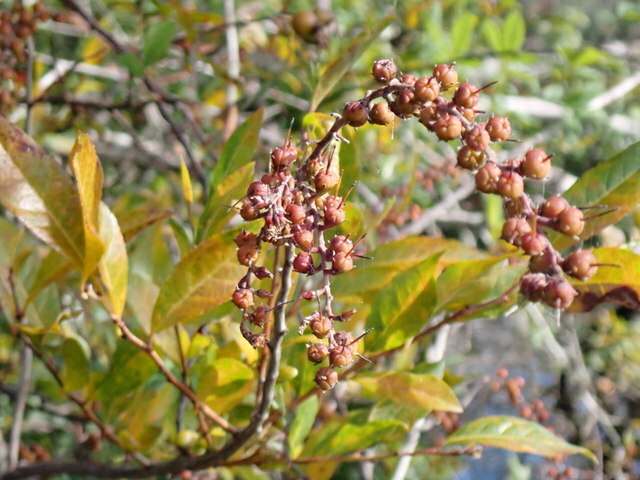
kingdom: Plantae
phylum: Tracheophyta
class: Magnoliopsida
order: Ericales
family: Ericaceae
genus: Eubotrys
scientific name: Eubotrys racemosa
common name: Fetterbush
